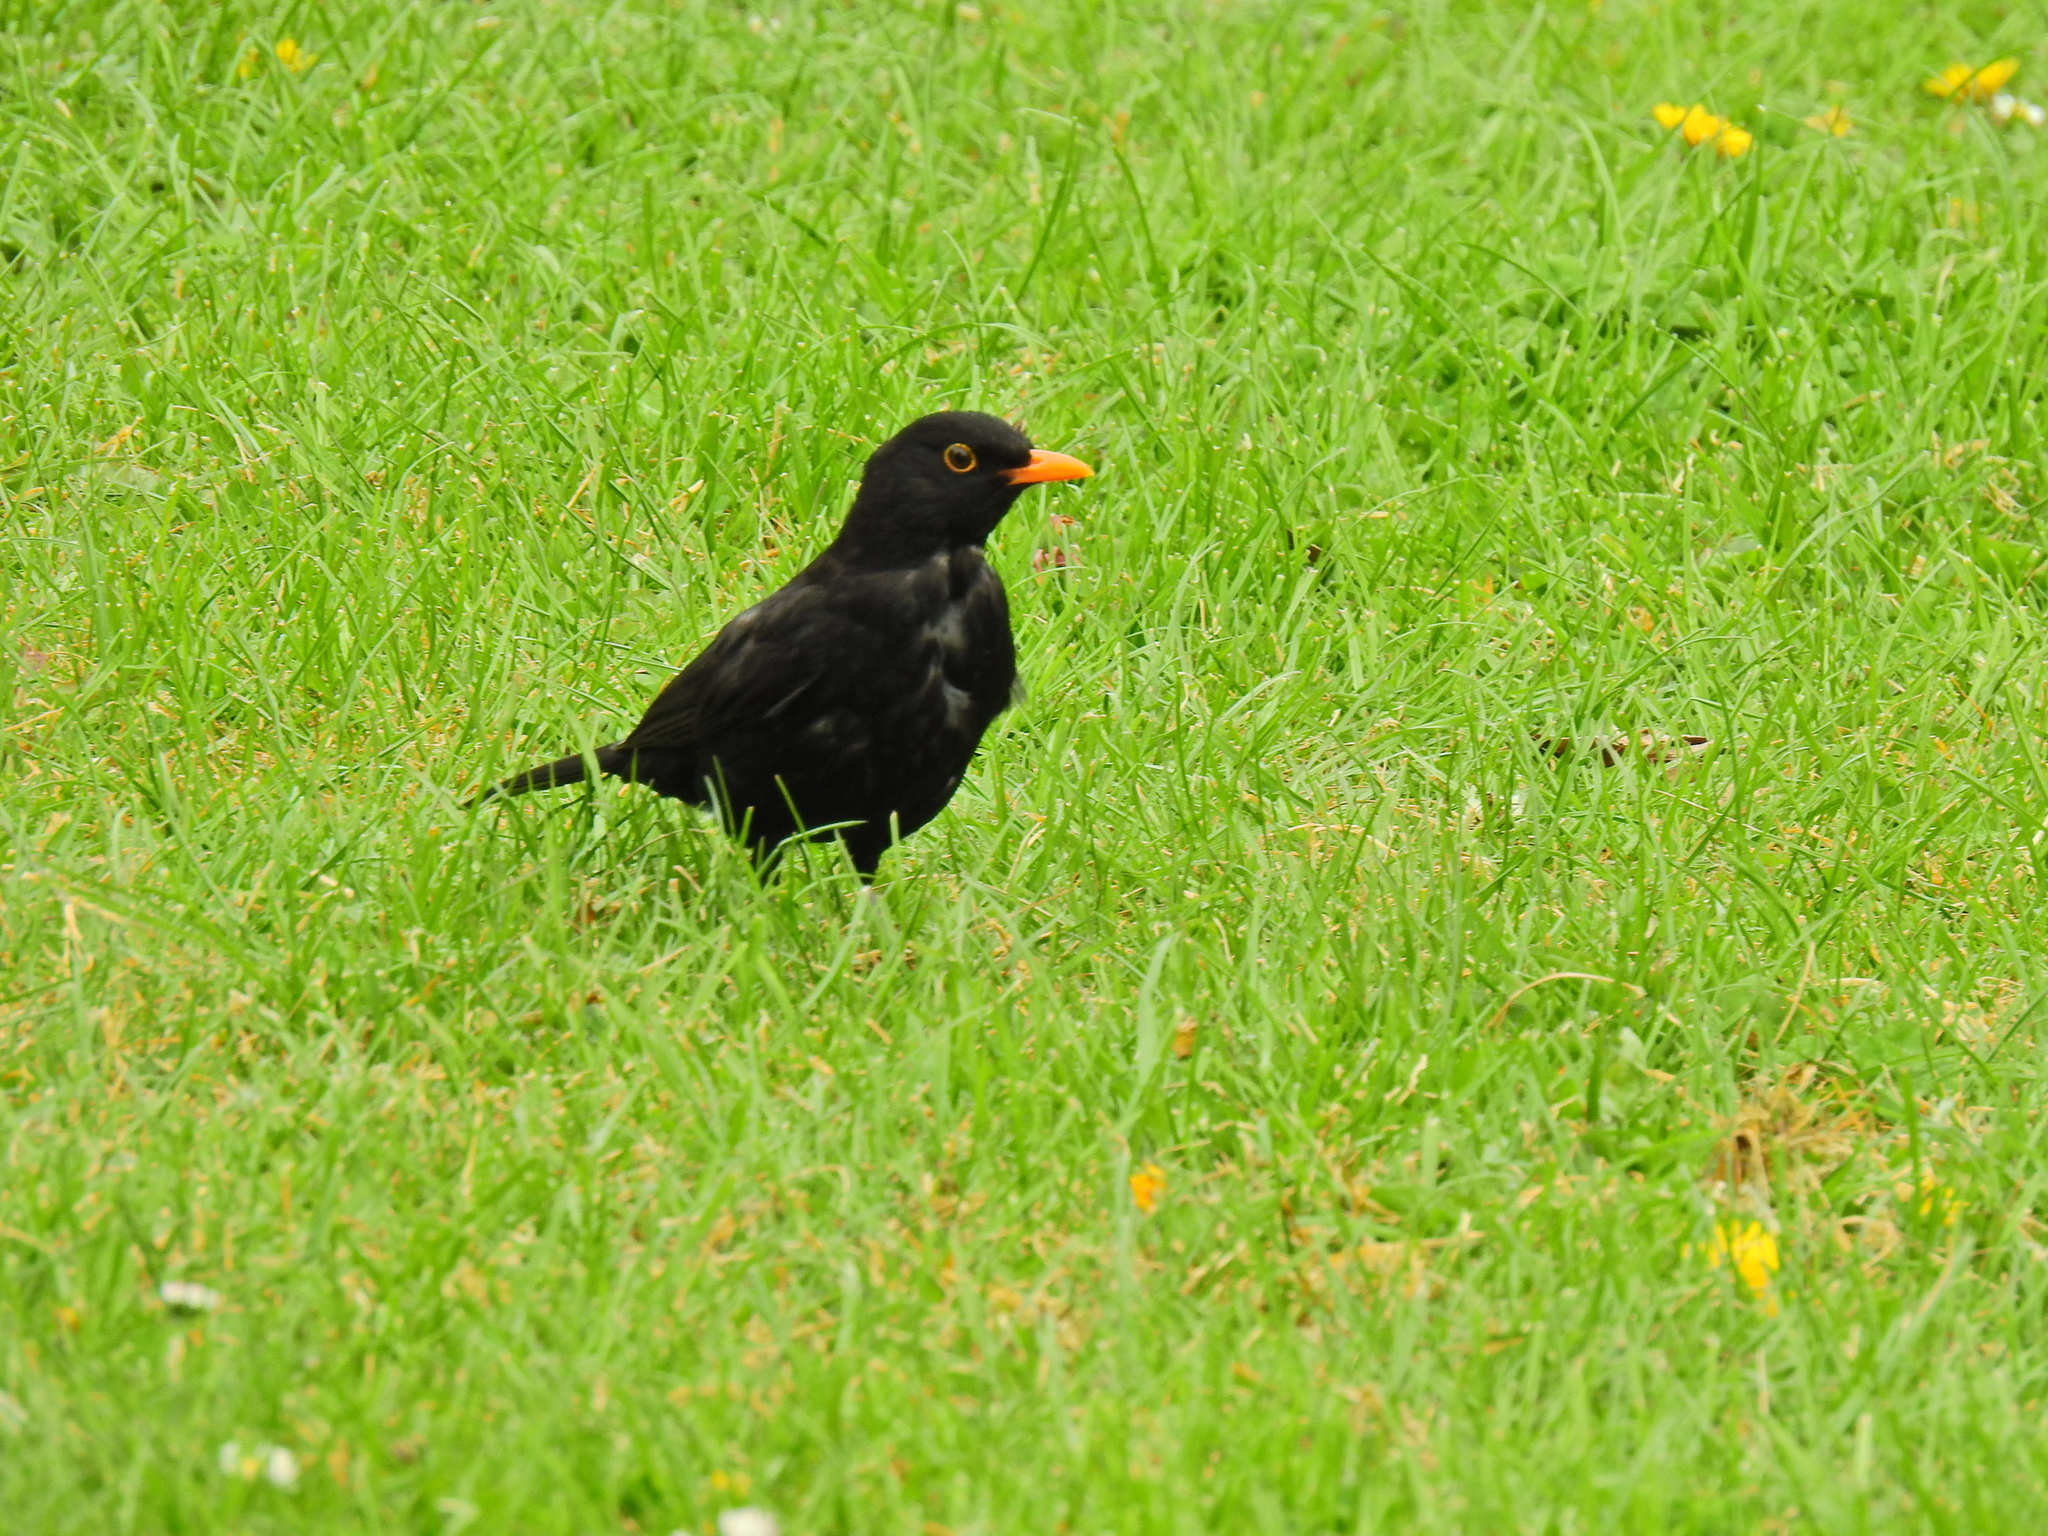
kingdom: Animalia
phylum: Chordata
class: Aves
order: Passeriformes
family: Turdidae
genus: Turdus
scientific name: Turdus merula
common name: Common blackbird
